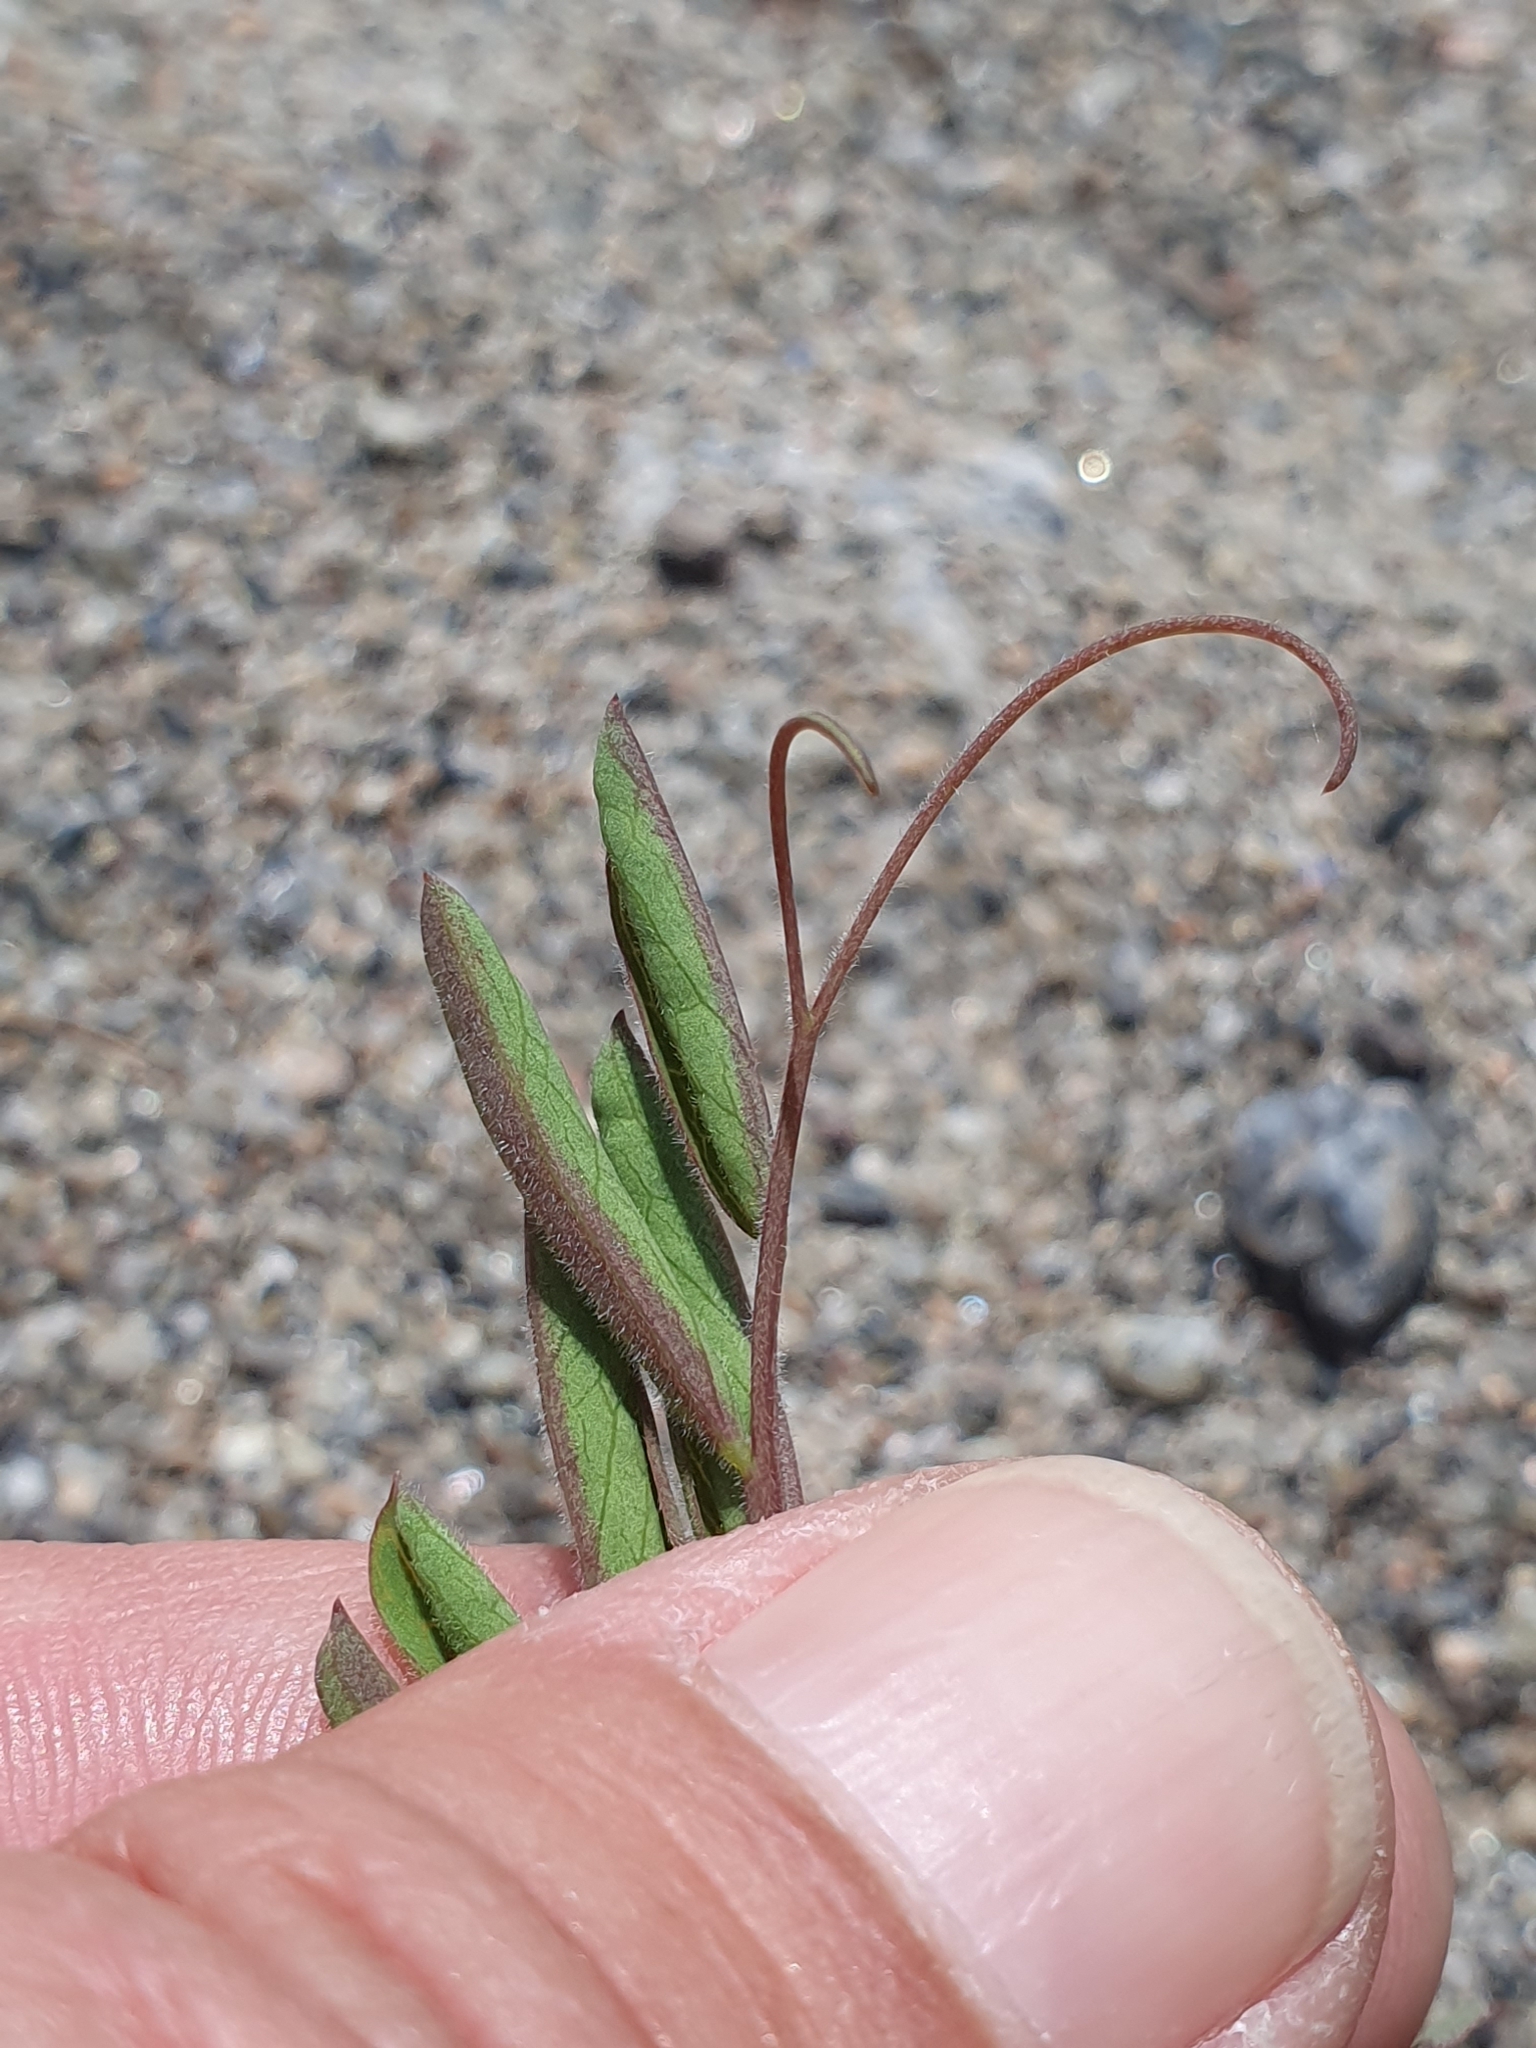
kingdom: Plantae
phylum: Tracheophyta
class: Magnoliopsida
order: Fabales
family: Fabaceae
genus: Lathyrus
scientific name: Lathyrus japonicus
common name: Sea pea
